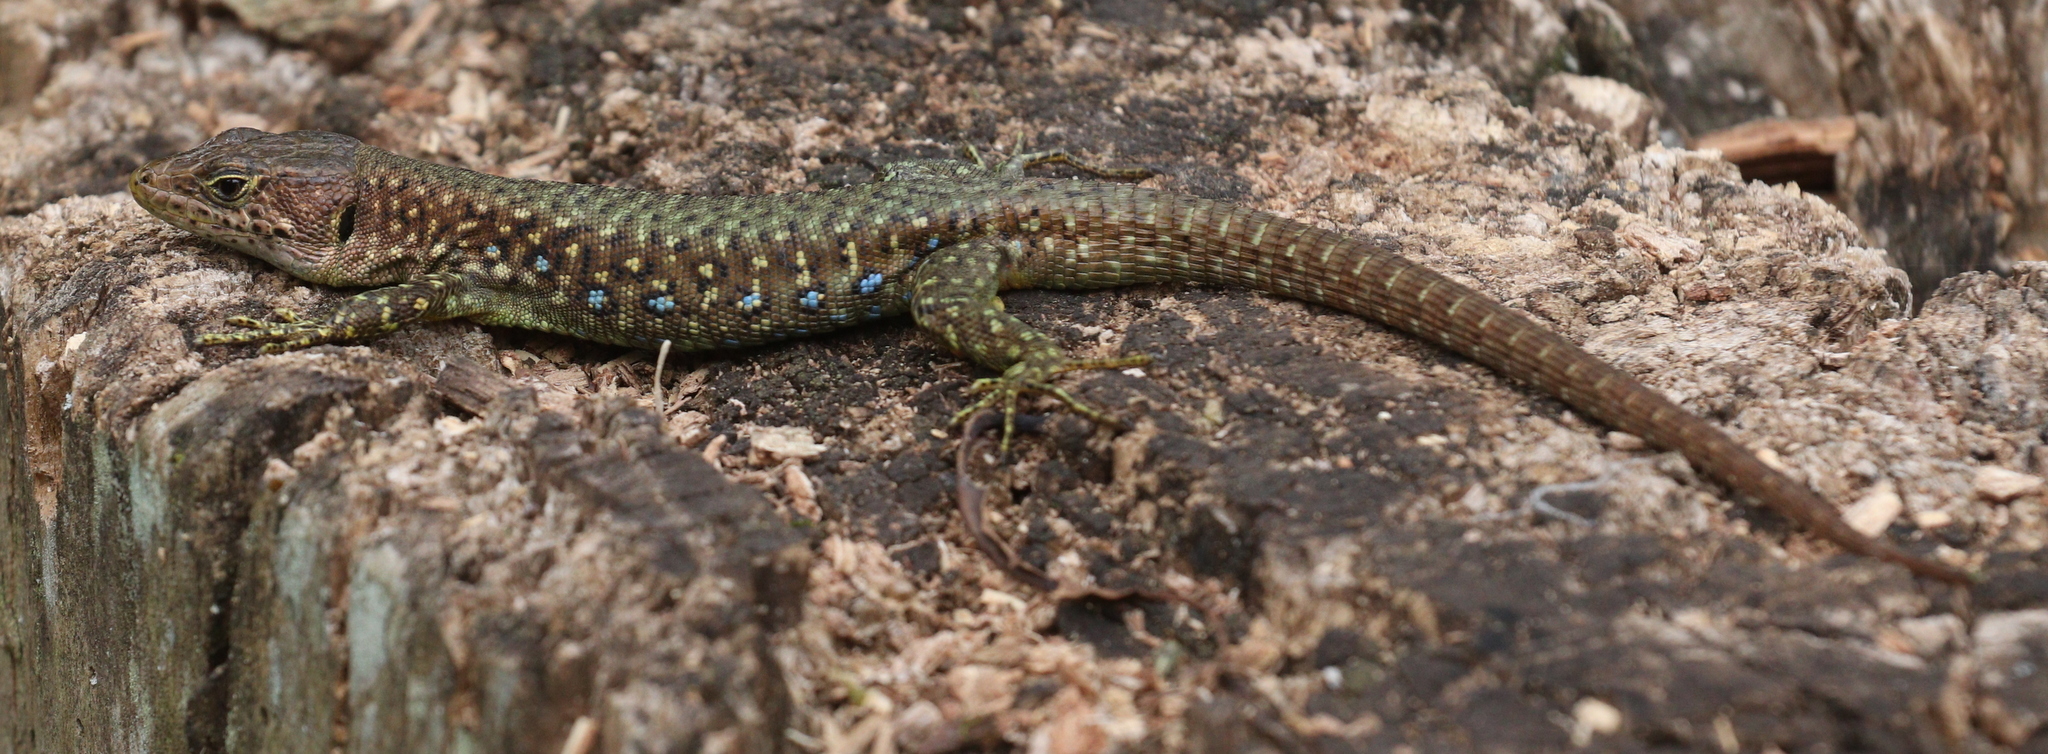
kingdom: Animalia
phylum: Chordata
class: Squamata
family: Lacertidae
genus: Adolfus
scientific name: Adolfus jacksoni
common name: Jackson’s forest lizard
